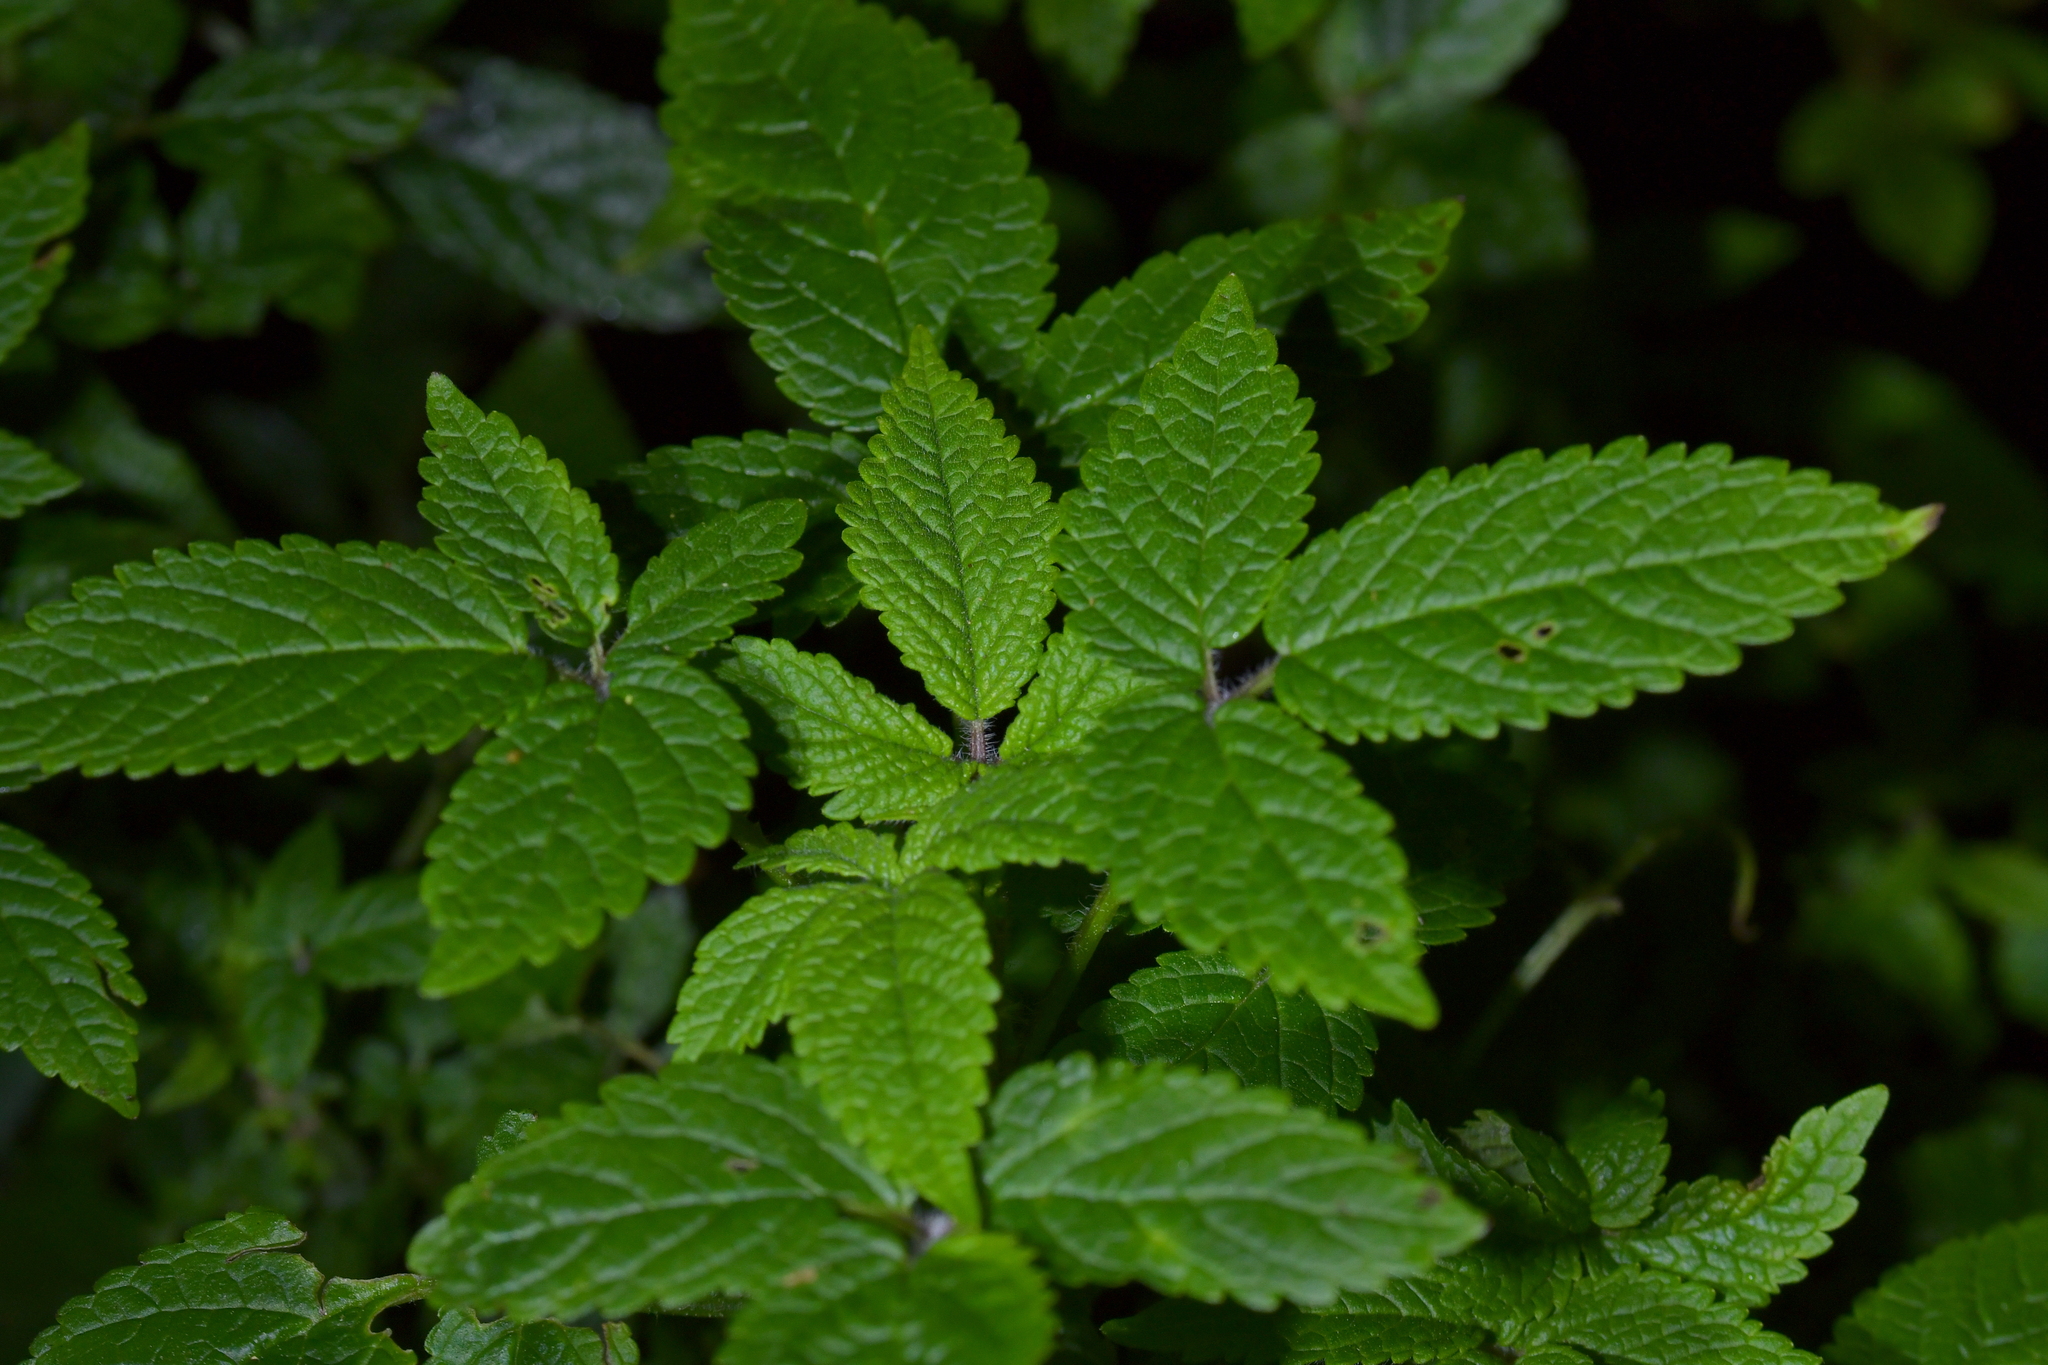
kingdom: Plantae
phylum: Tracheophyta
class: Magnoliopsida
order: Lamiales
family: Lamiaceae
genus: Cedronella
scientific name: Cedronella canariensis
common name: Canary islands balm
